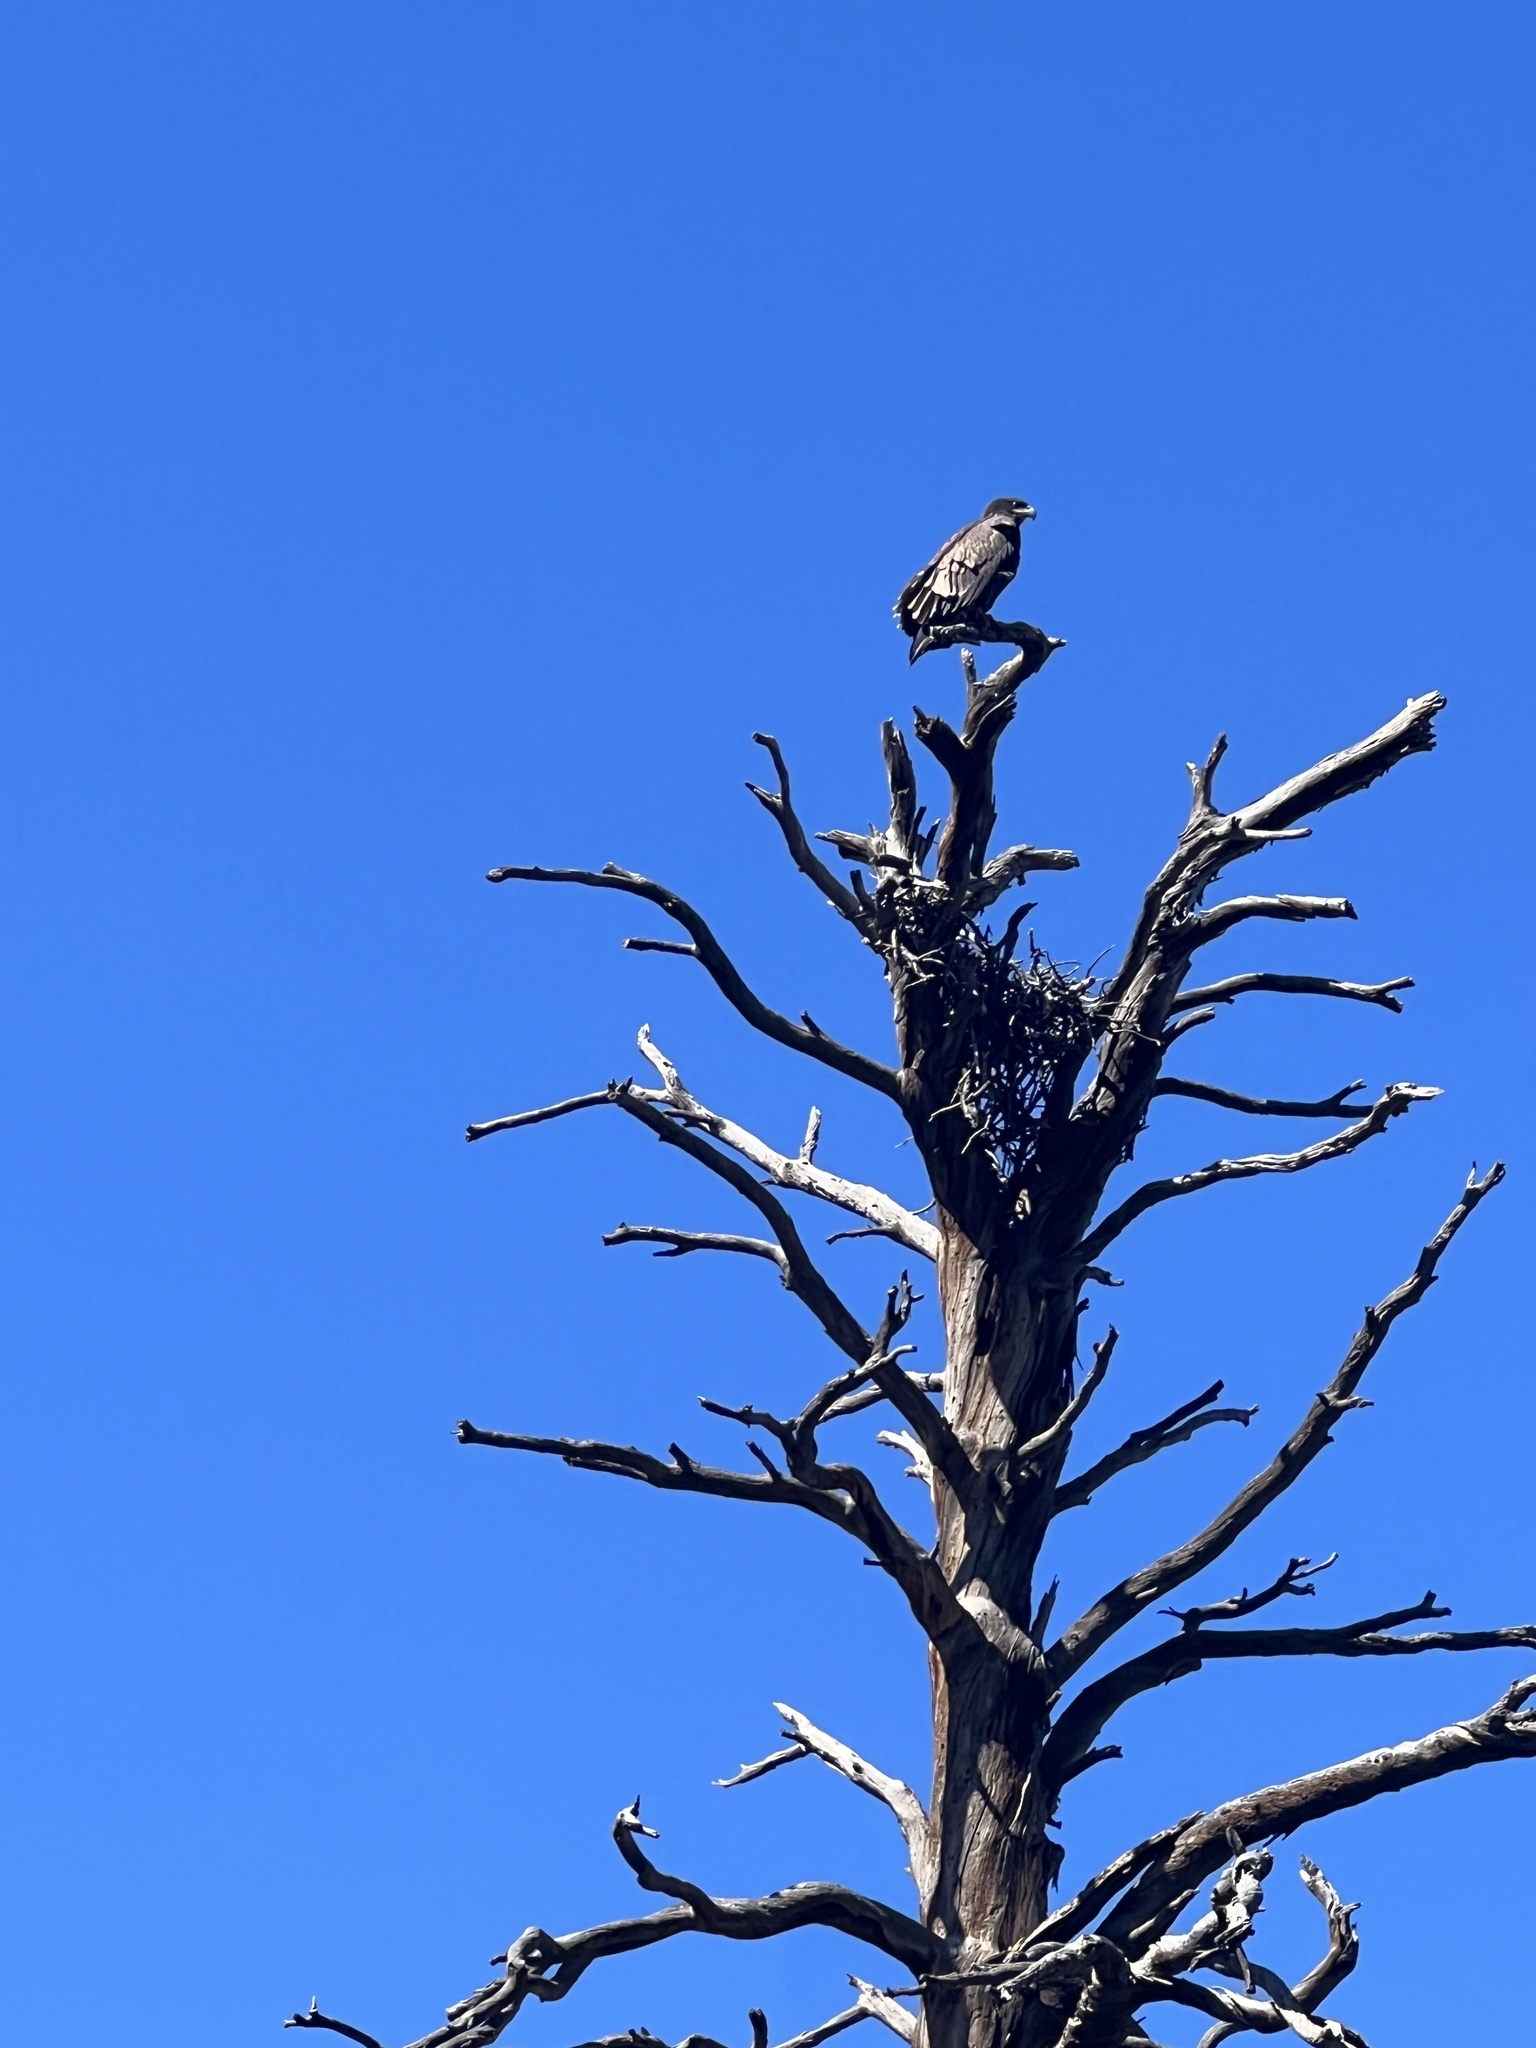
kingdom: Animalia
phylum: Chordata
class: Aves
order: Accipitriformes
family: Accipitridae
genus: Haliaeetus
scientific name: Haliaeetus leucocephalus
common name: Bald eagle
